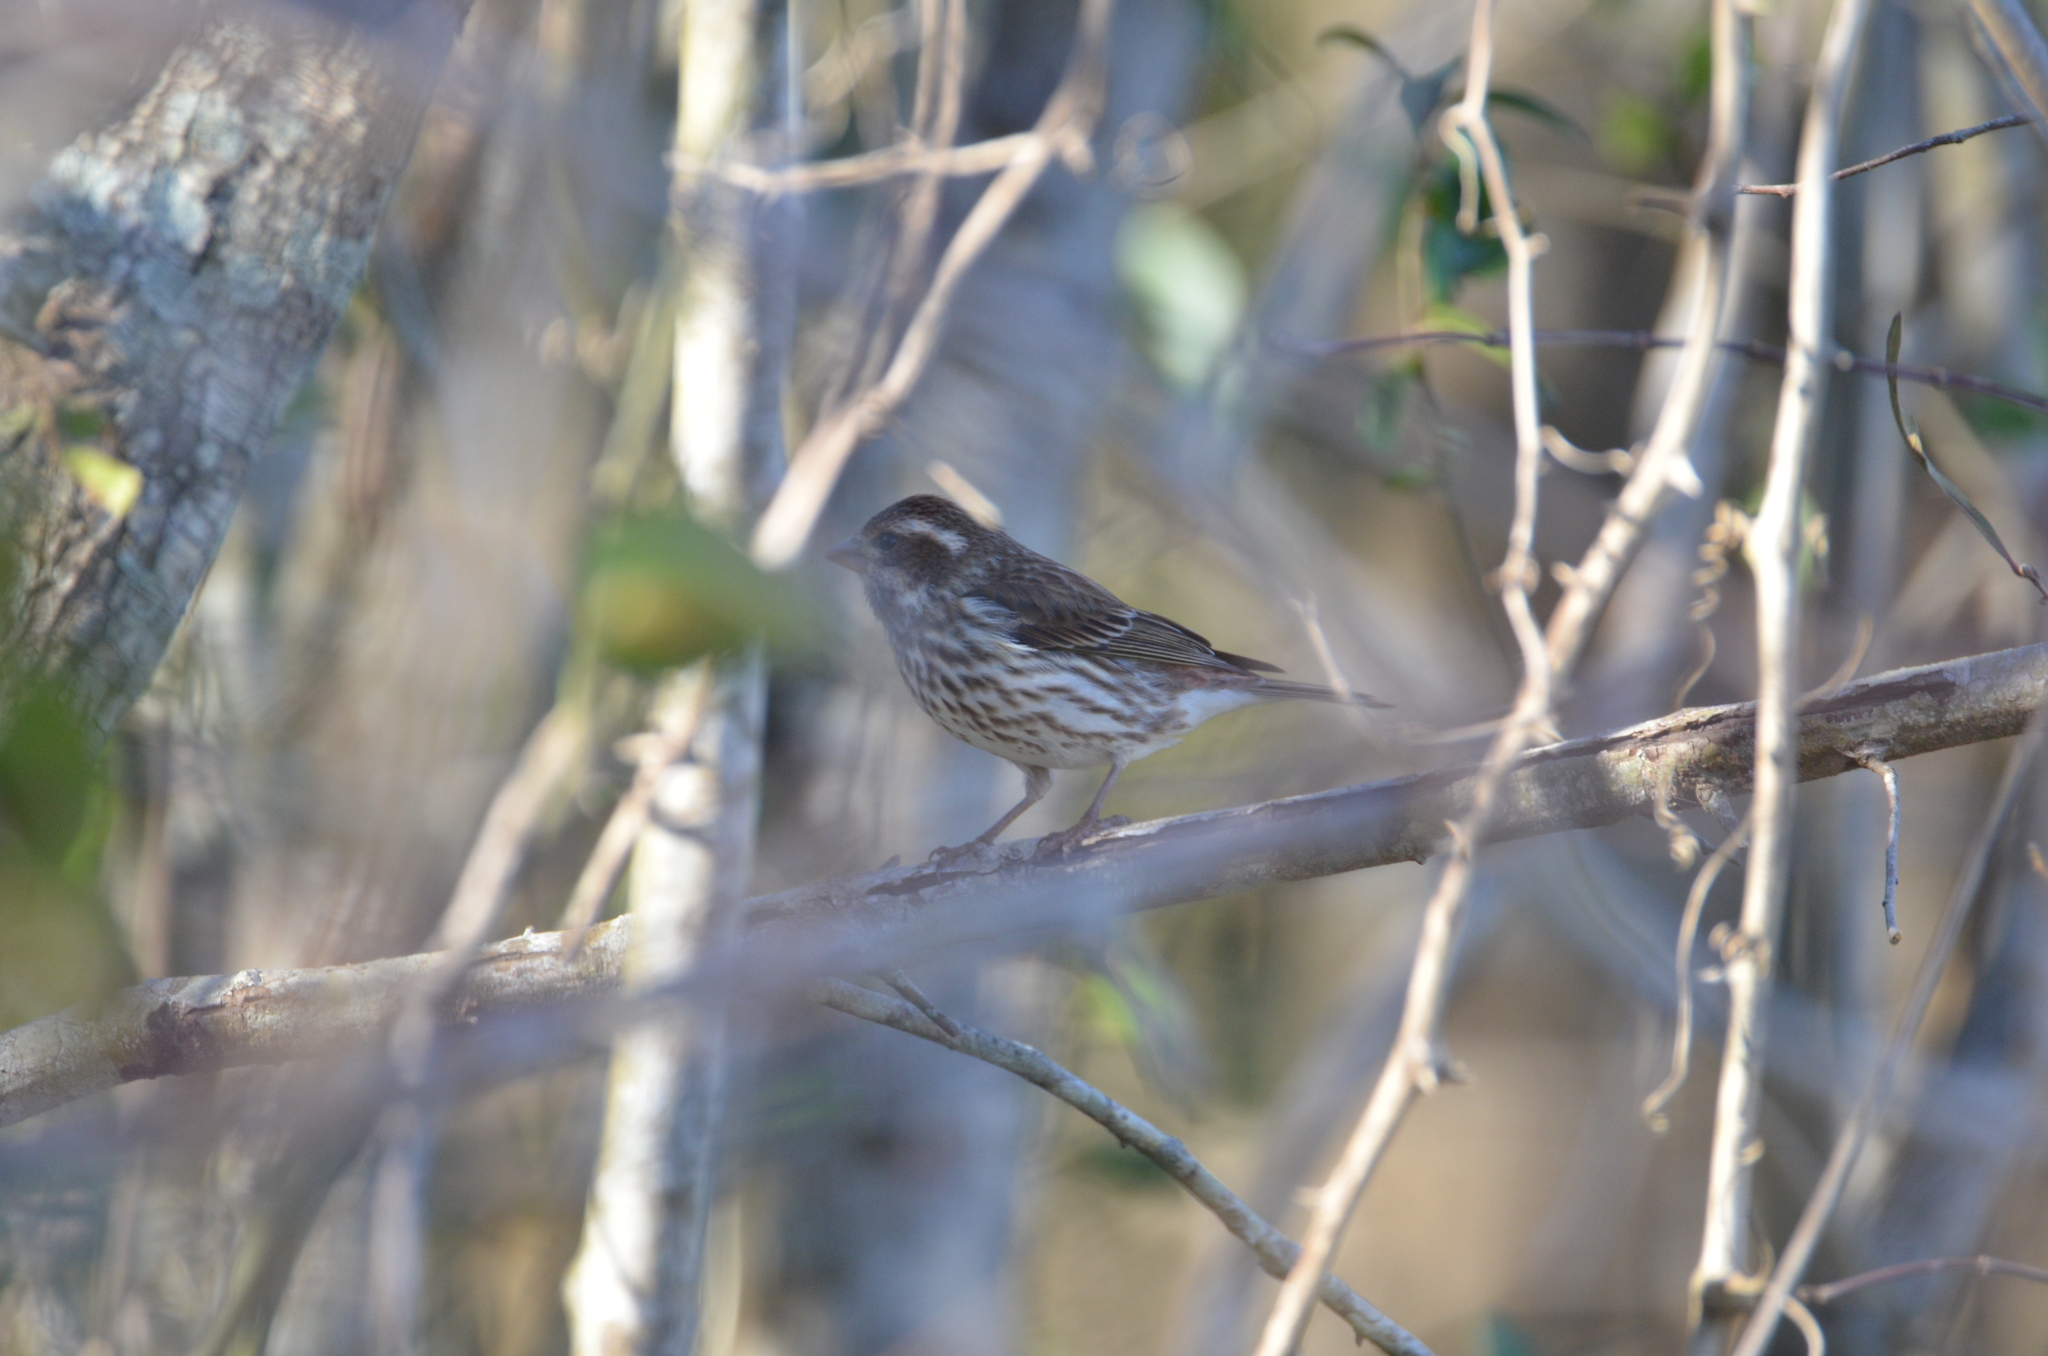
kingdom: Animalia
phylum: Chordata
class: Aves
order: Passeriformes
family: Fringillidae
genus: Haemorhous
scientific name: Haemorhous purpureus
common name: Purple finch
